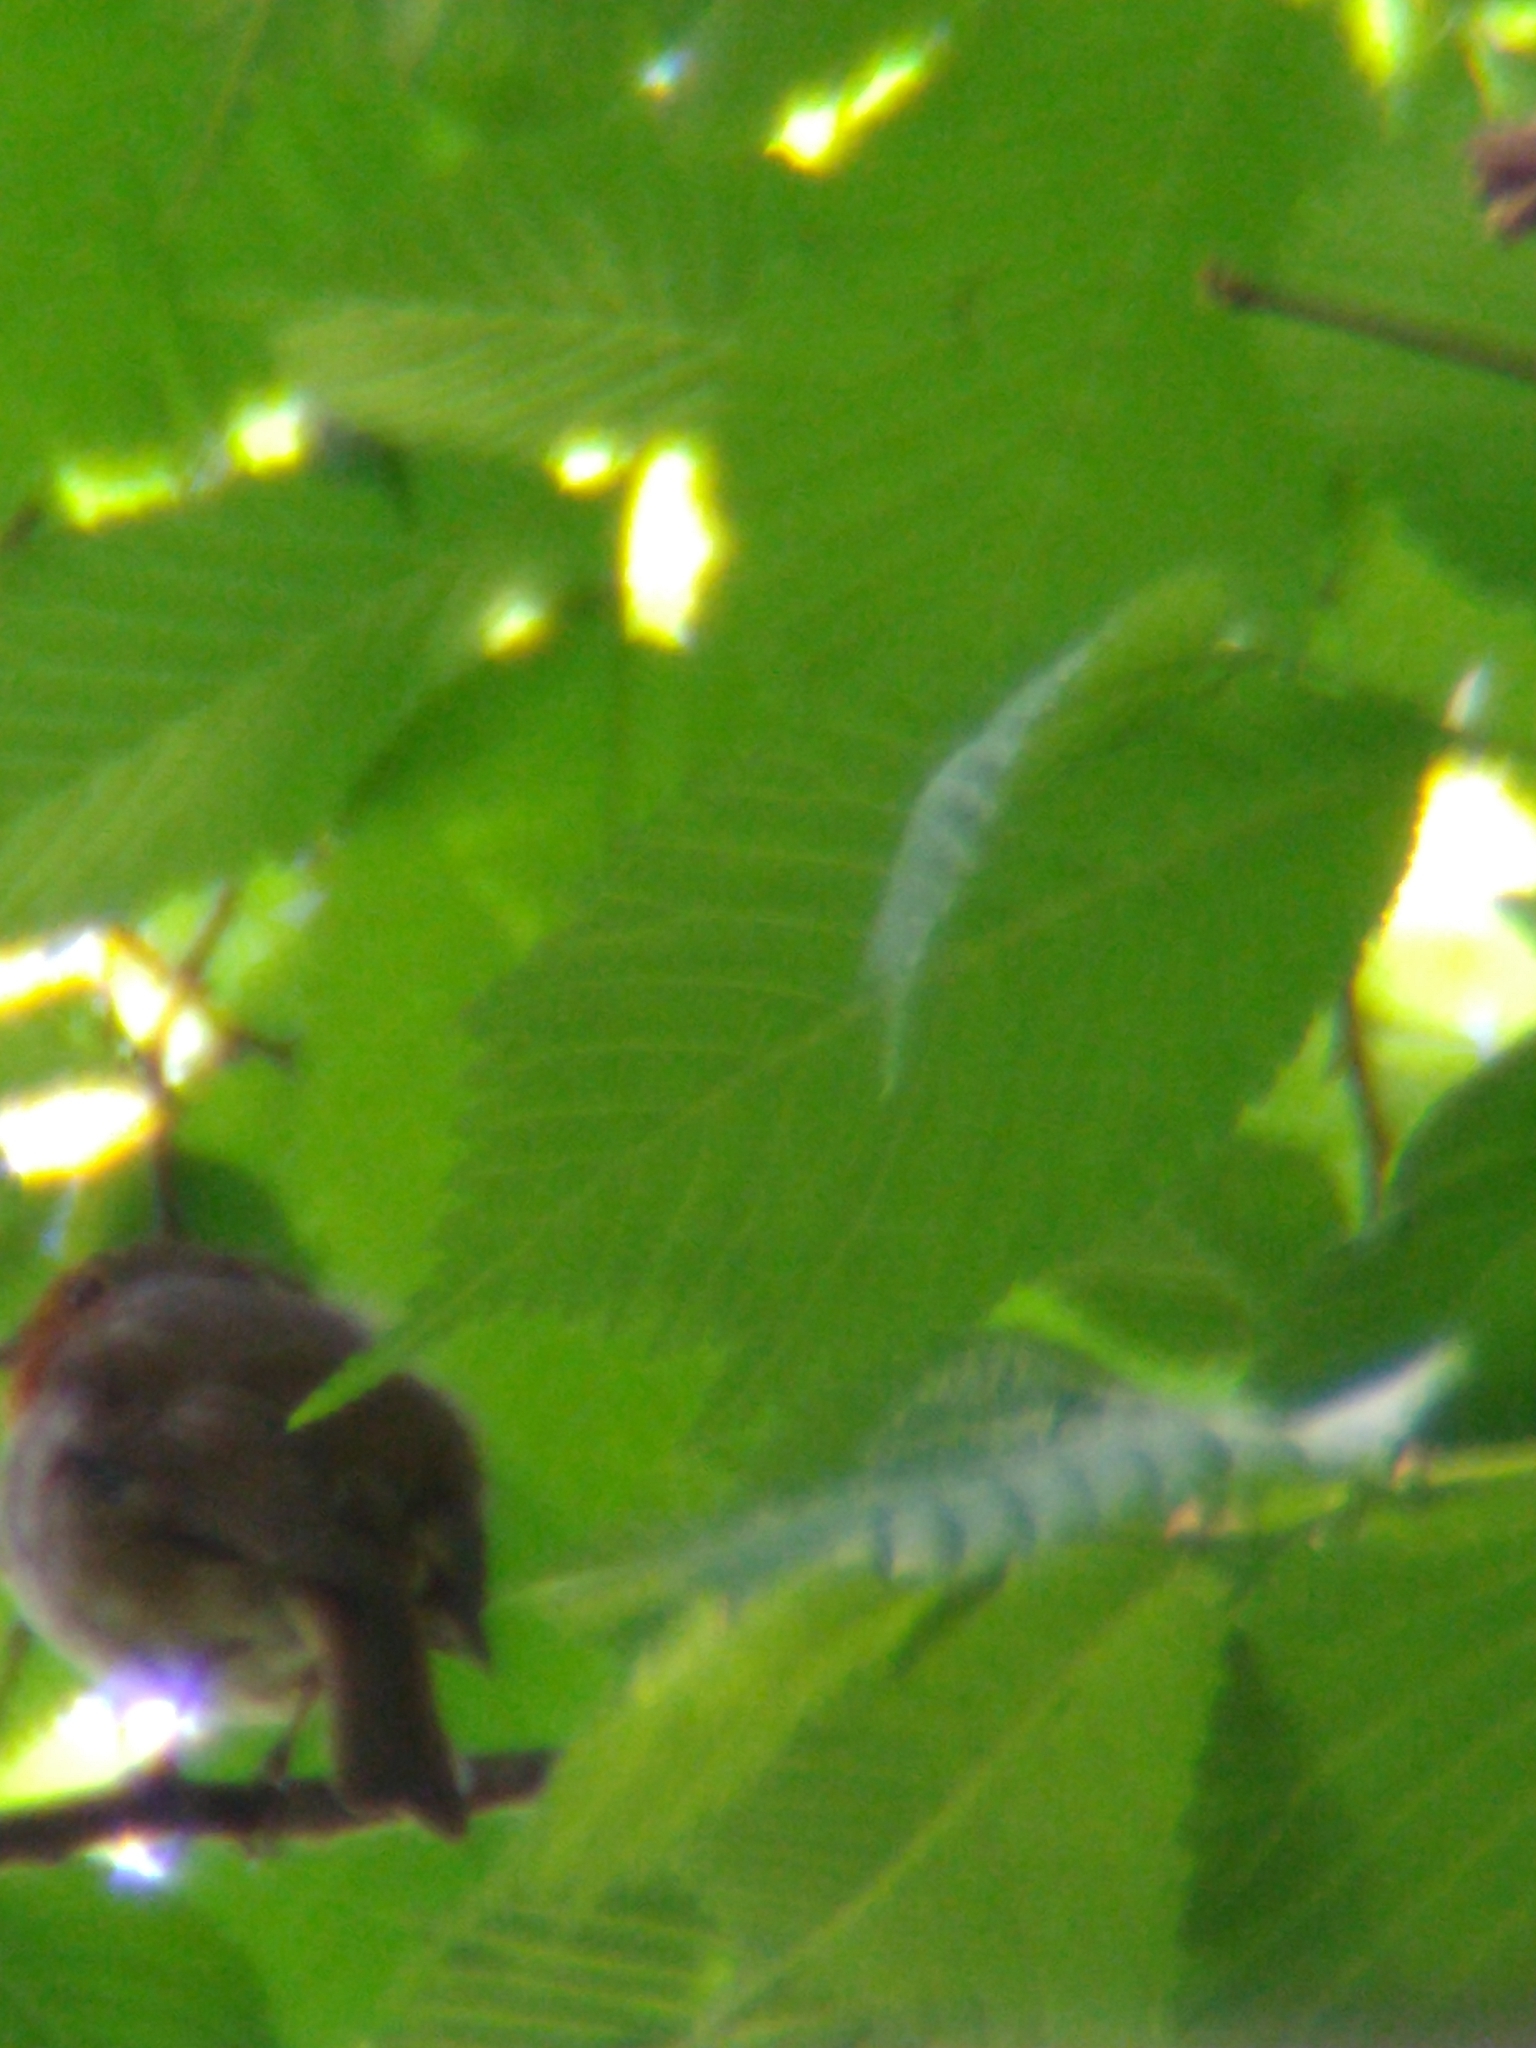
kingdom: Animalia
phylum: Chordata
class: Aves
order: Passeriformes
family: Muscicapidae
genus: Erithacus
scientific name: Erithacus rubecula
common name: European robin
